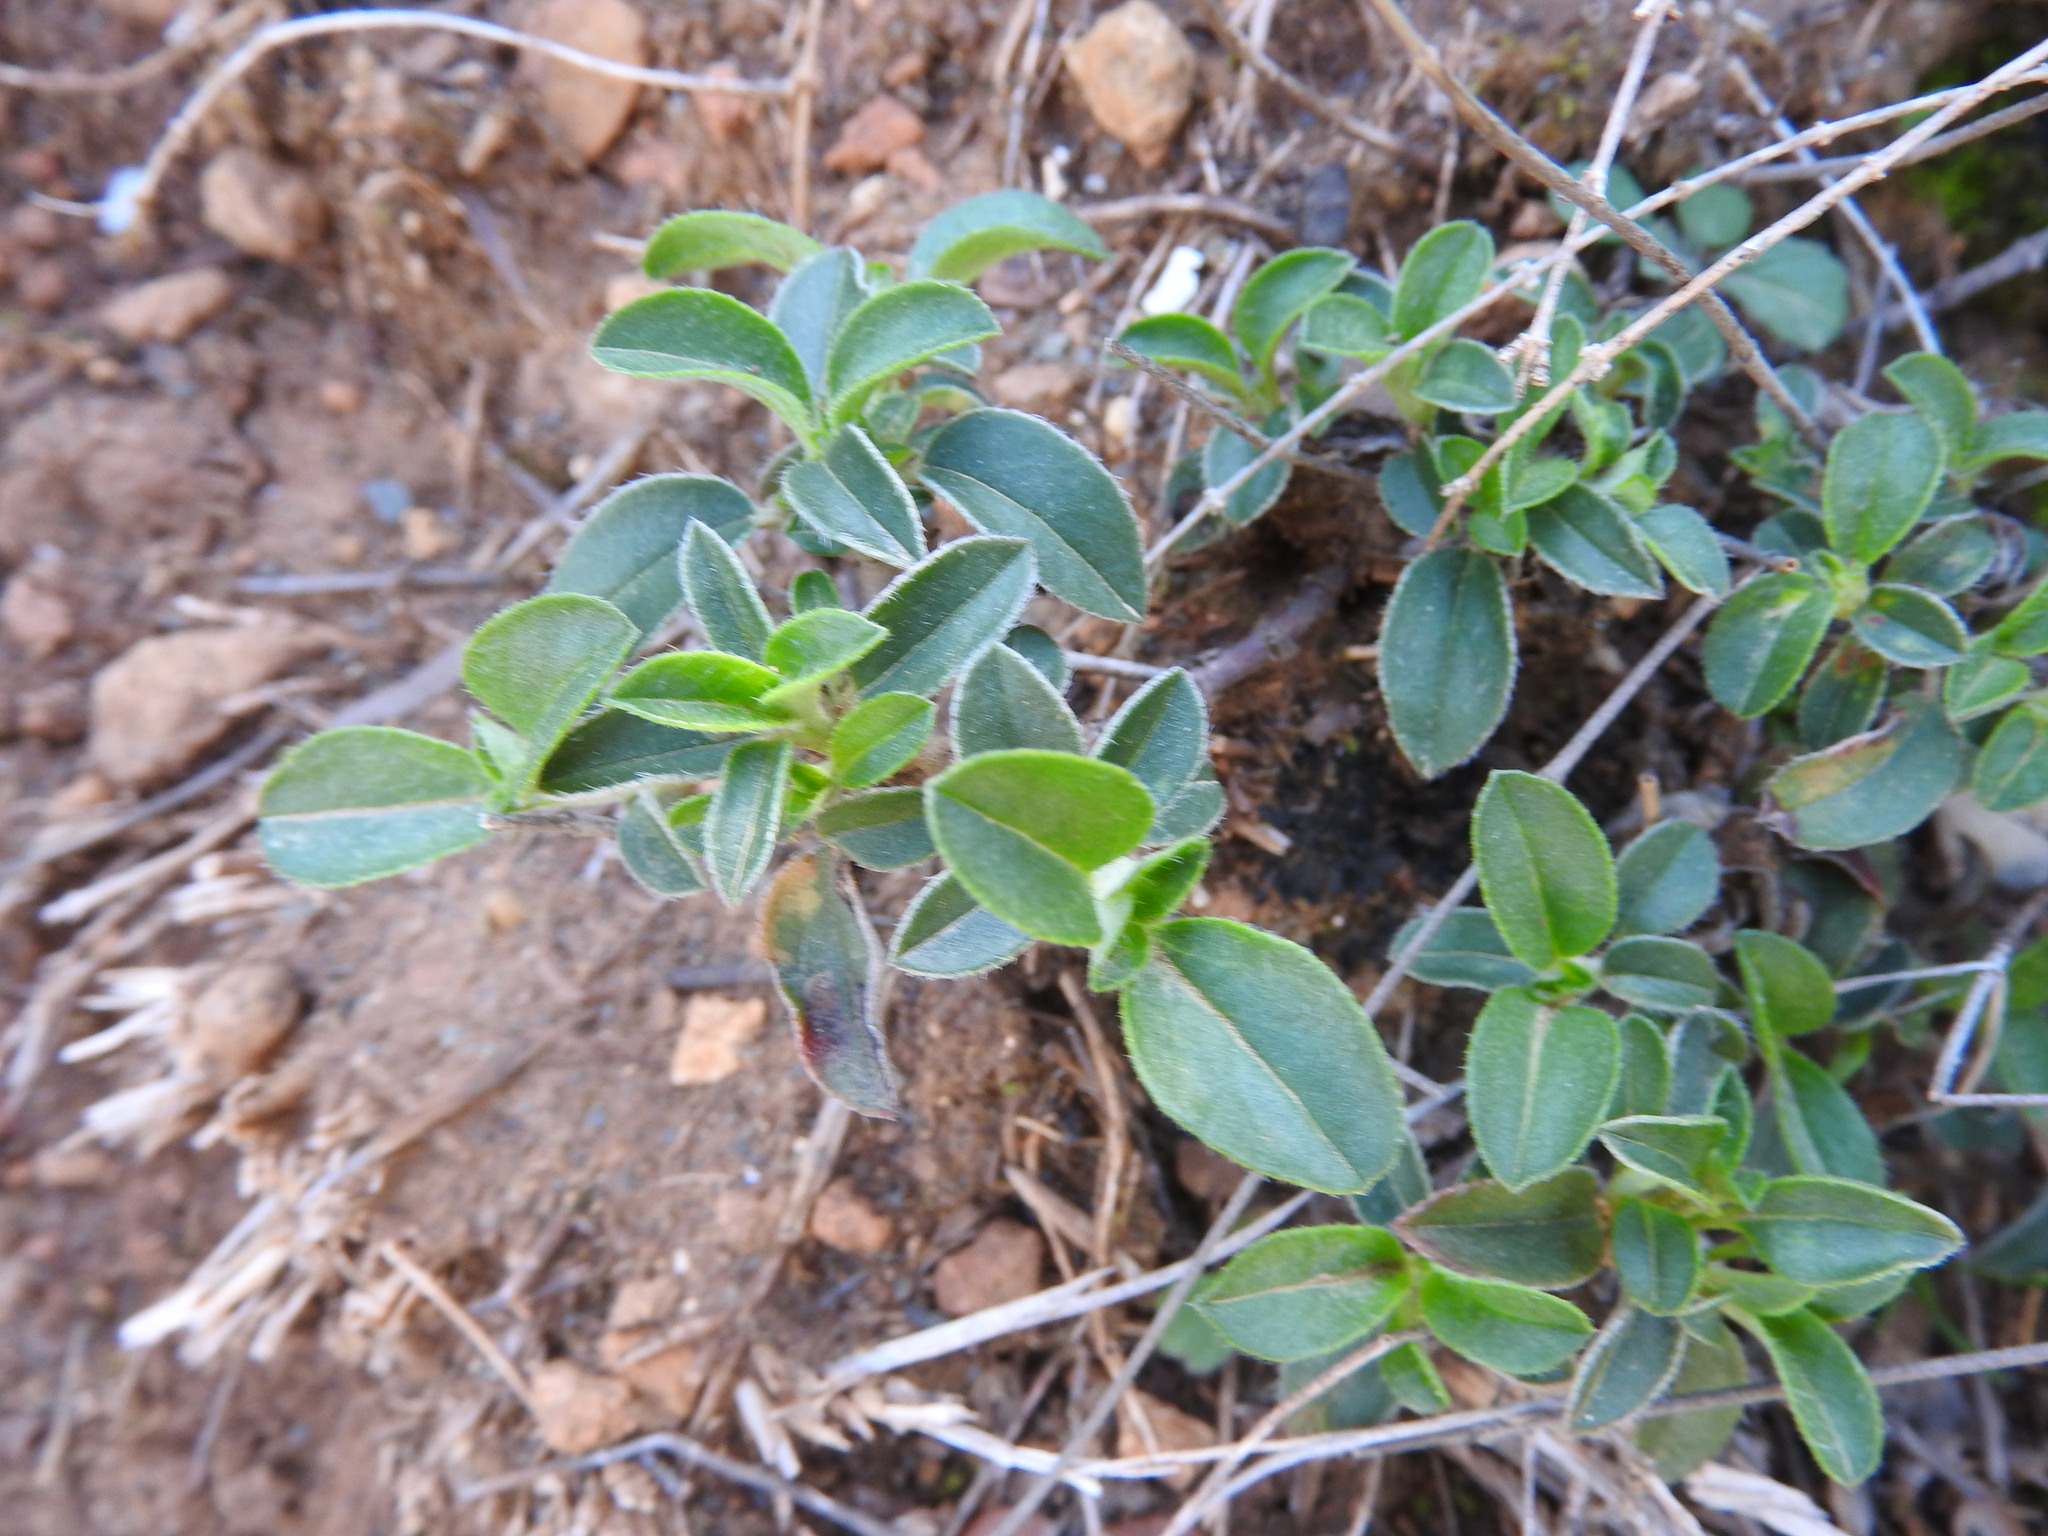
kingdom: Plantae
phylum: Tracheophyta
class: Magnoliopsida
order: Malvales
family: Cistaceae
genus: Helianthemum
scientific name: Helianthemum cinereum
